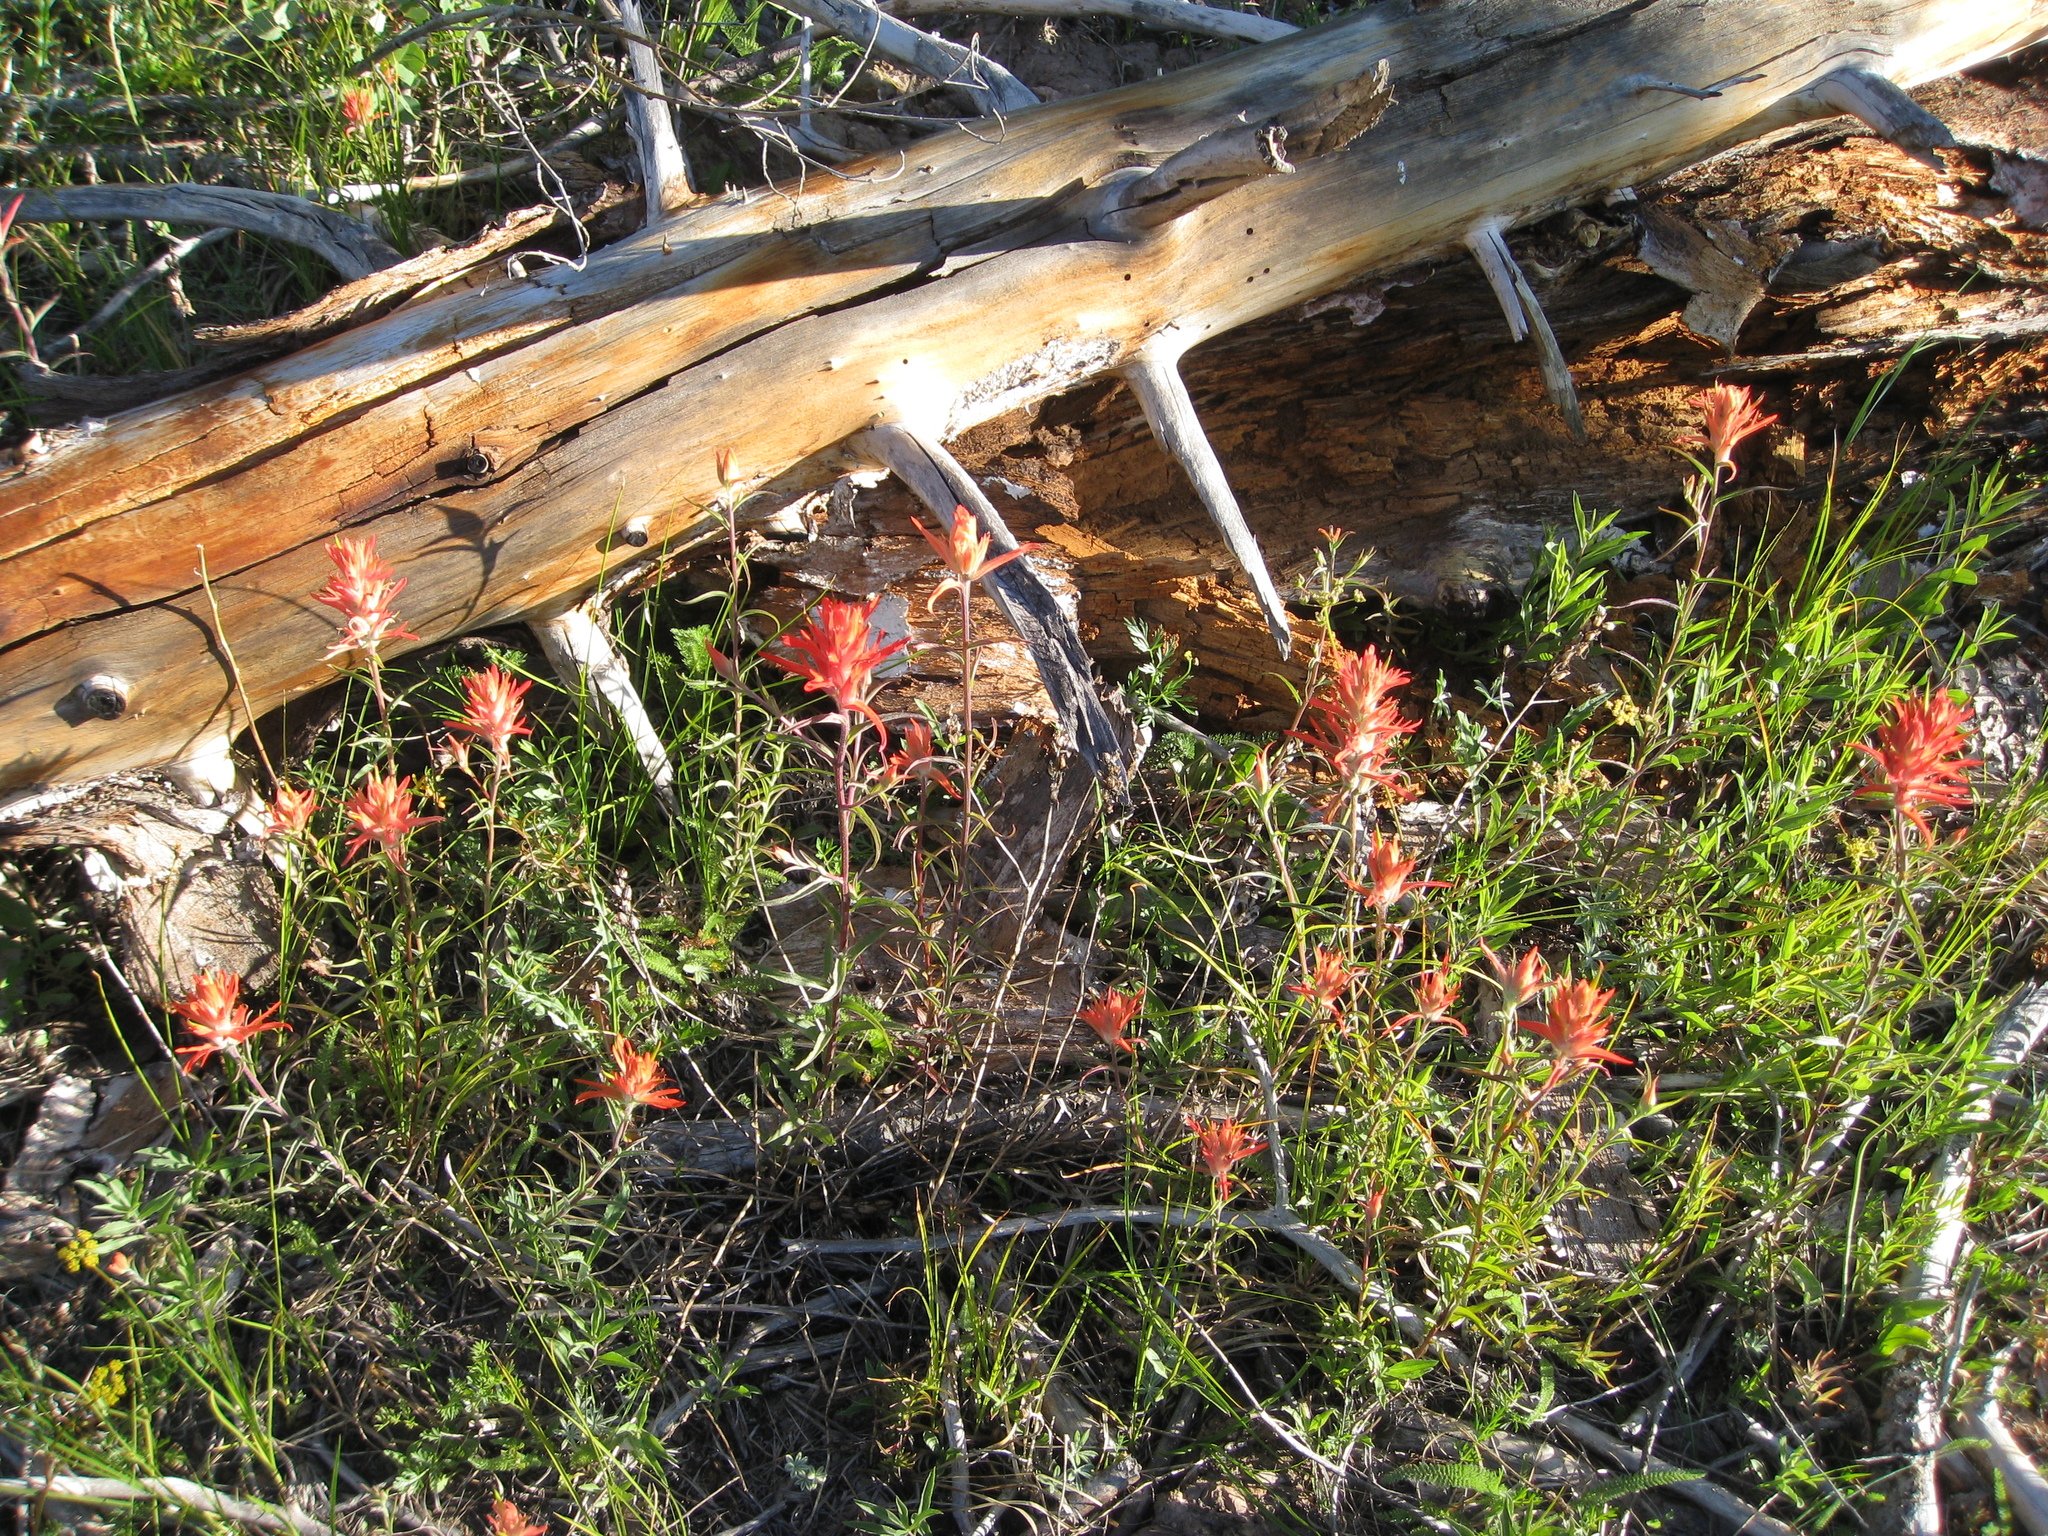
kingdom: Plantae
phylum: Tracheophyta
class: Magnoliopsida
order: Lamiales
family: Orobanchaceae
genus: Castilleja
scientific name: Castilleja linariifolia
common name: Wyoming paintbrush
